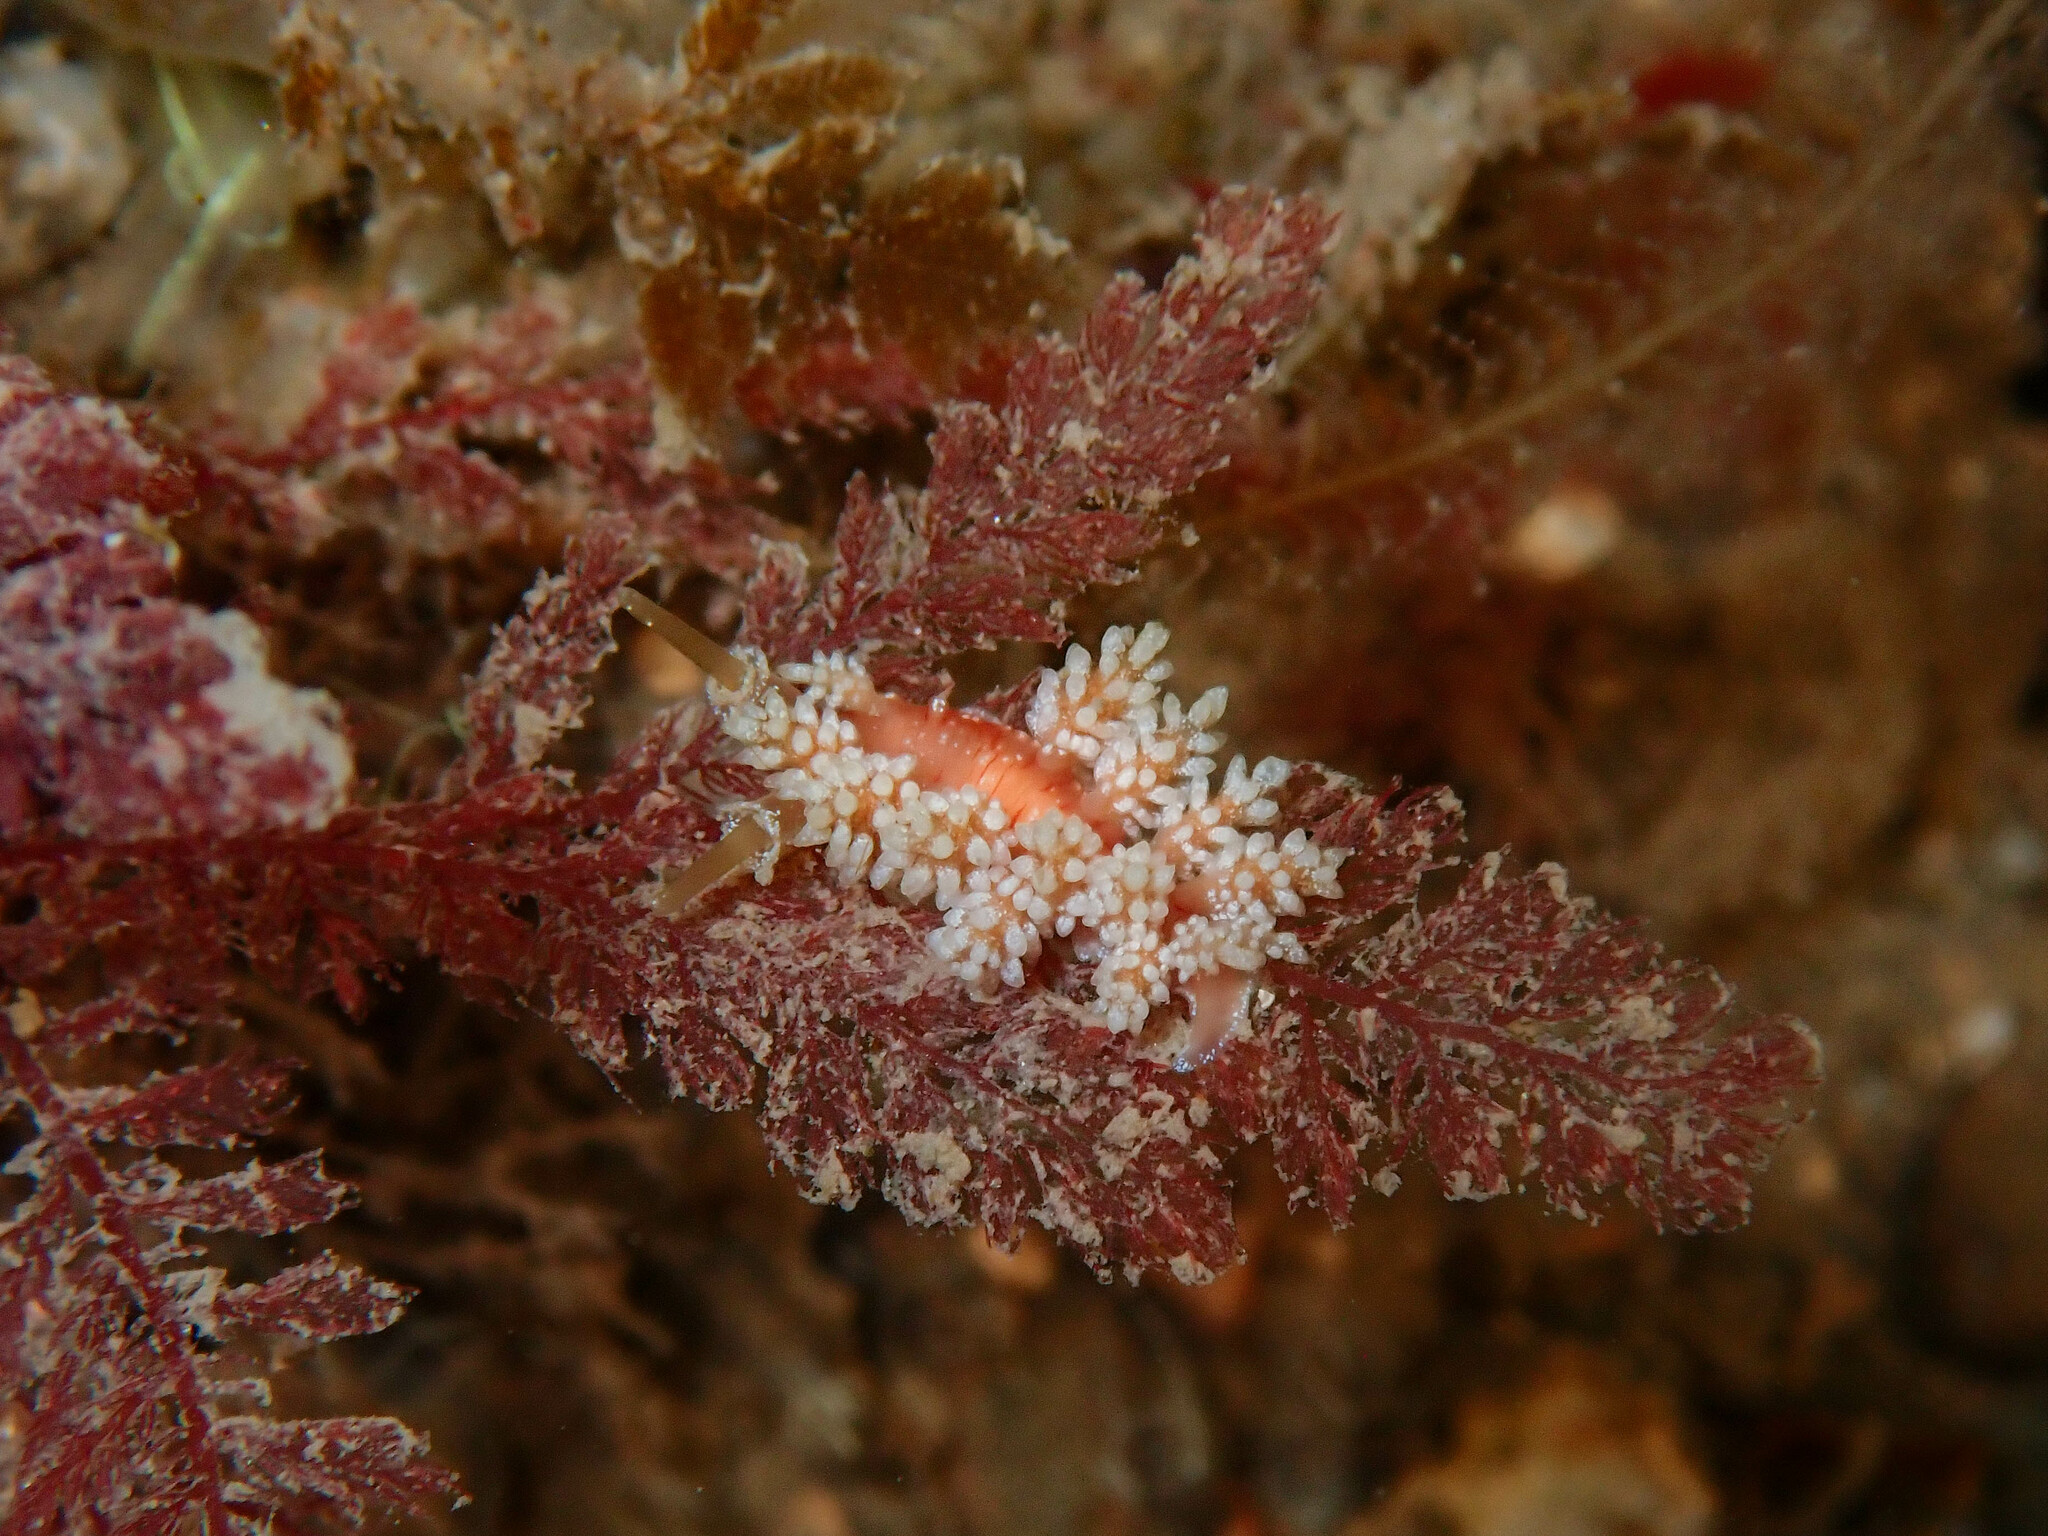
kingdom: Animalia
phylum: Mollusca
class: Gastropoda
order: Nudibranchia
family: Dotidae
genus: Doto
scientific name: Doto fragilis
